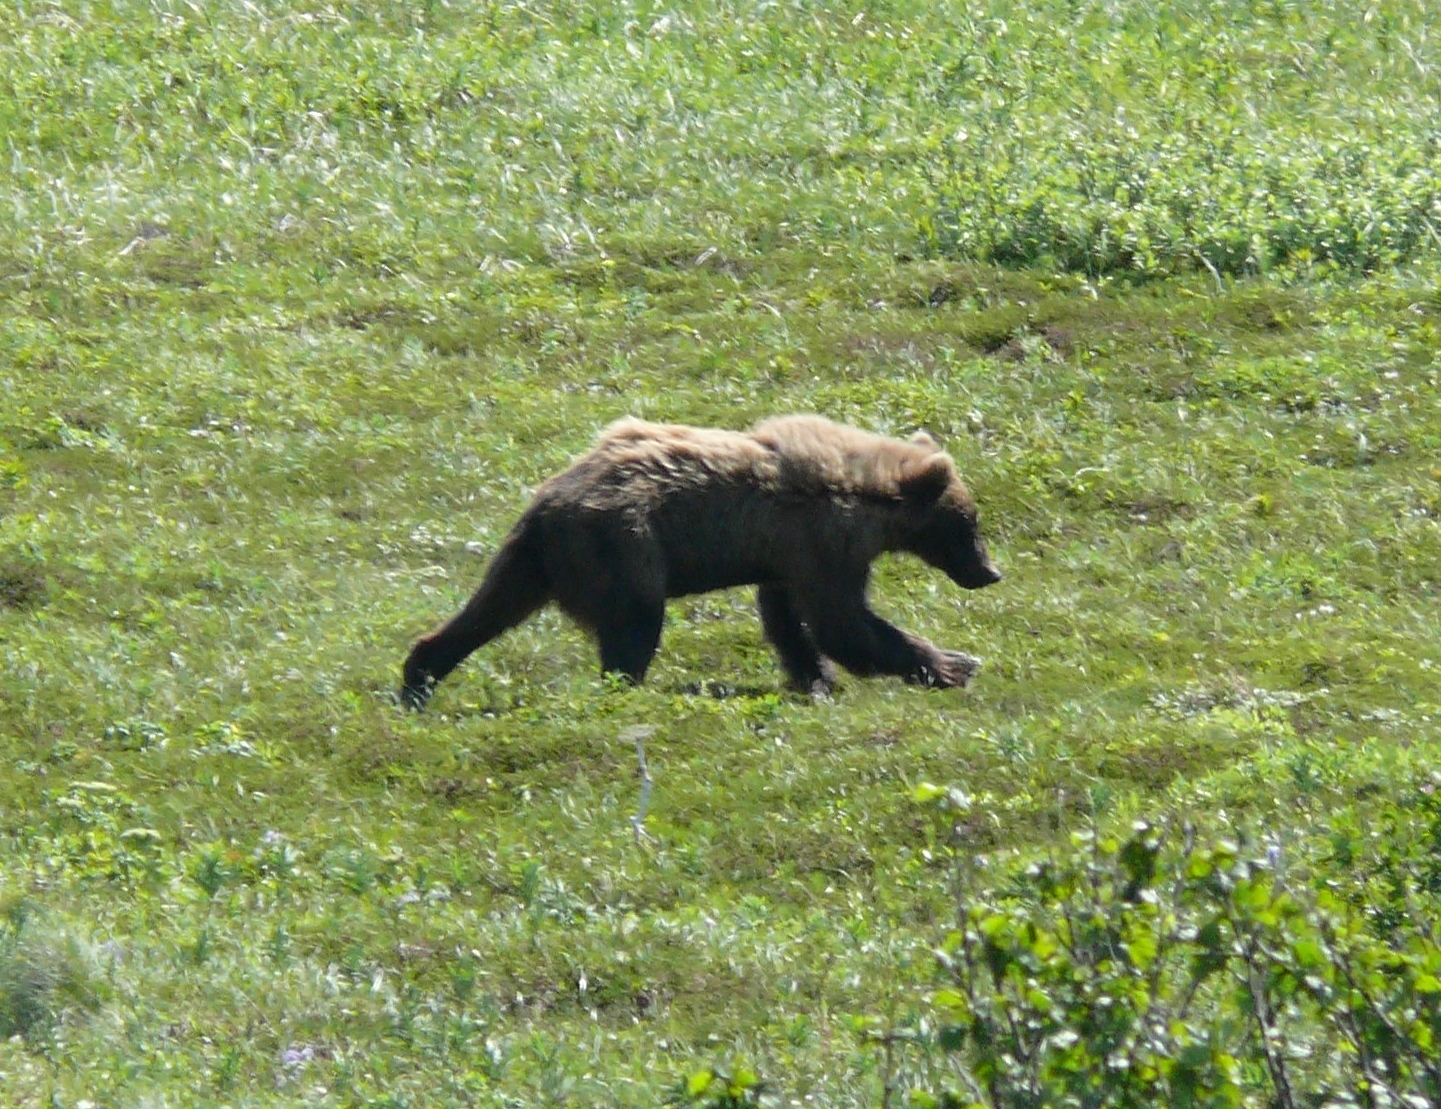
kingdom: Animalia
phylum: Chordata
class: Mammalia
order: Carnivora
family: Ursidae
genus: Ursus
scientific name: Ursus arctos
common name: Brown bear
